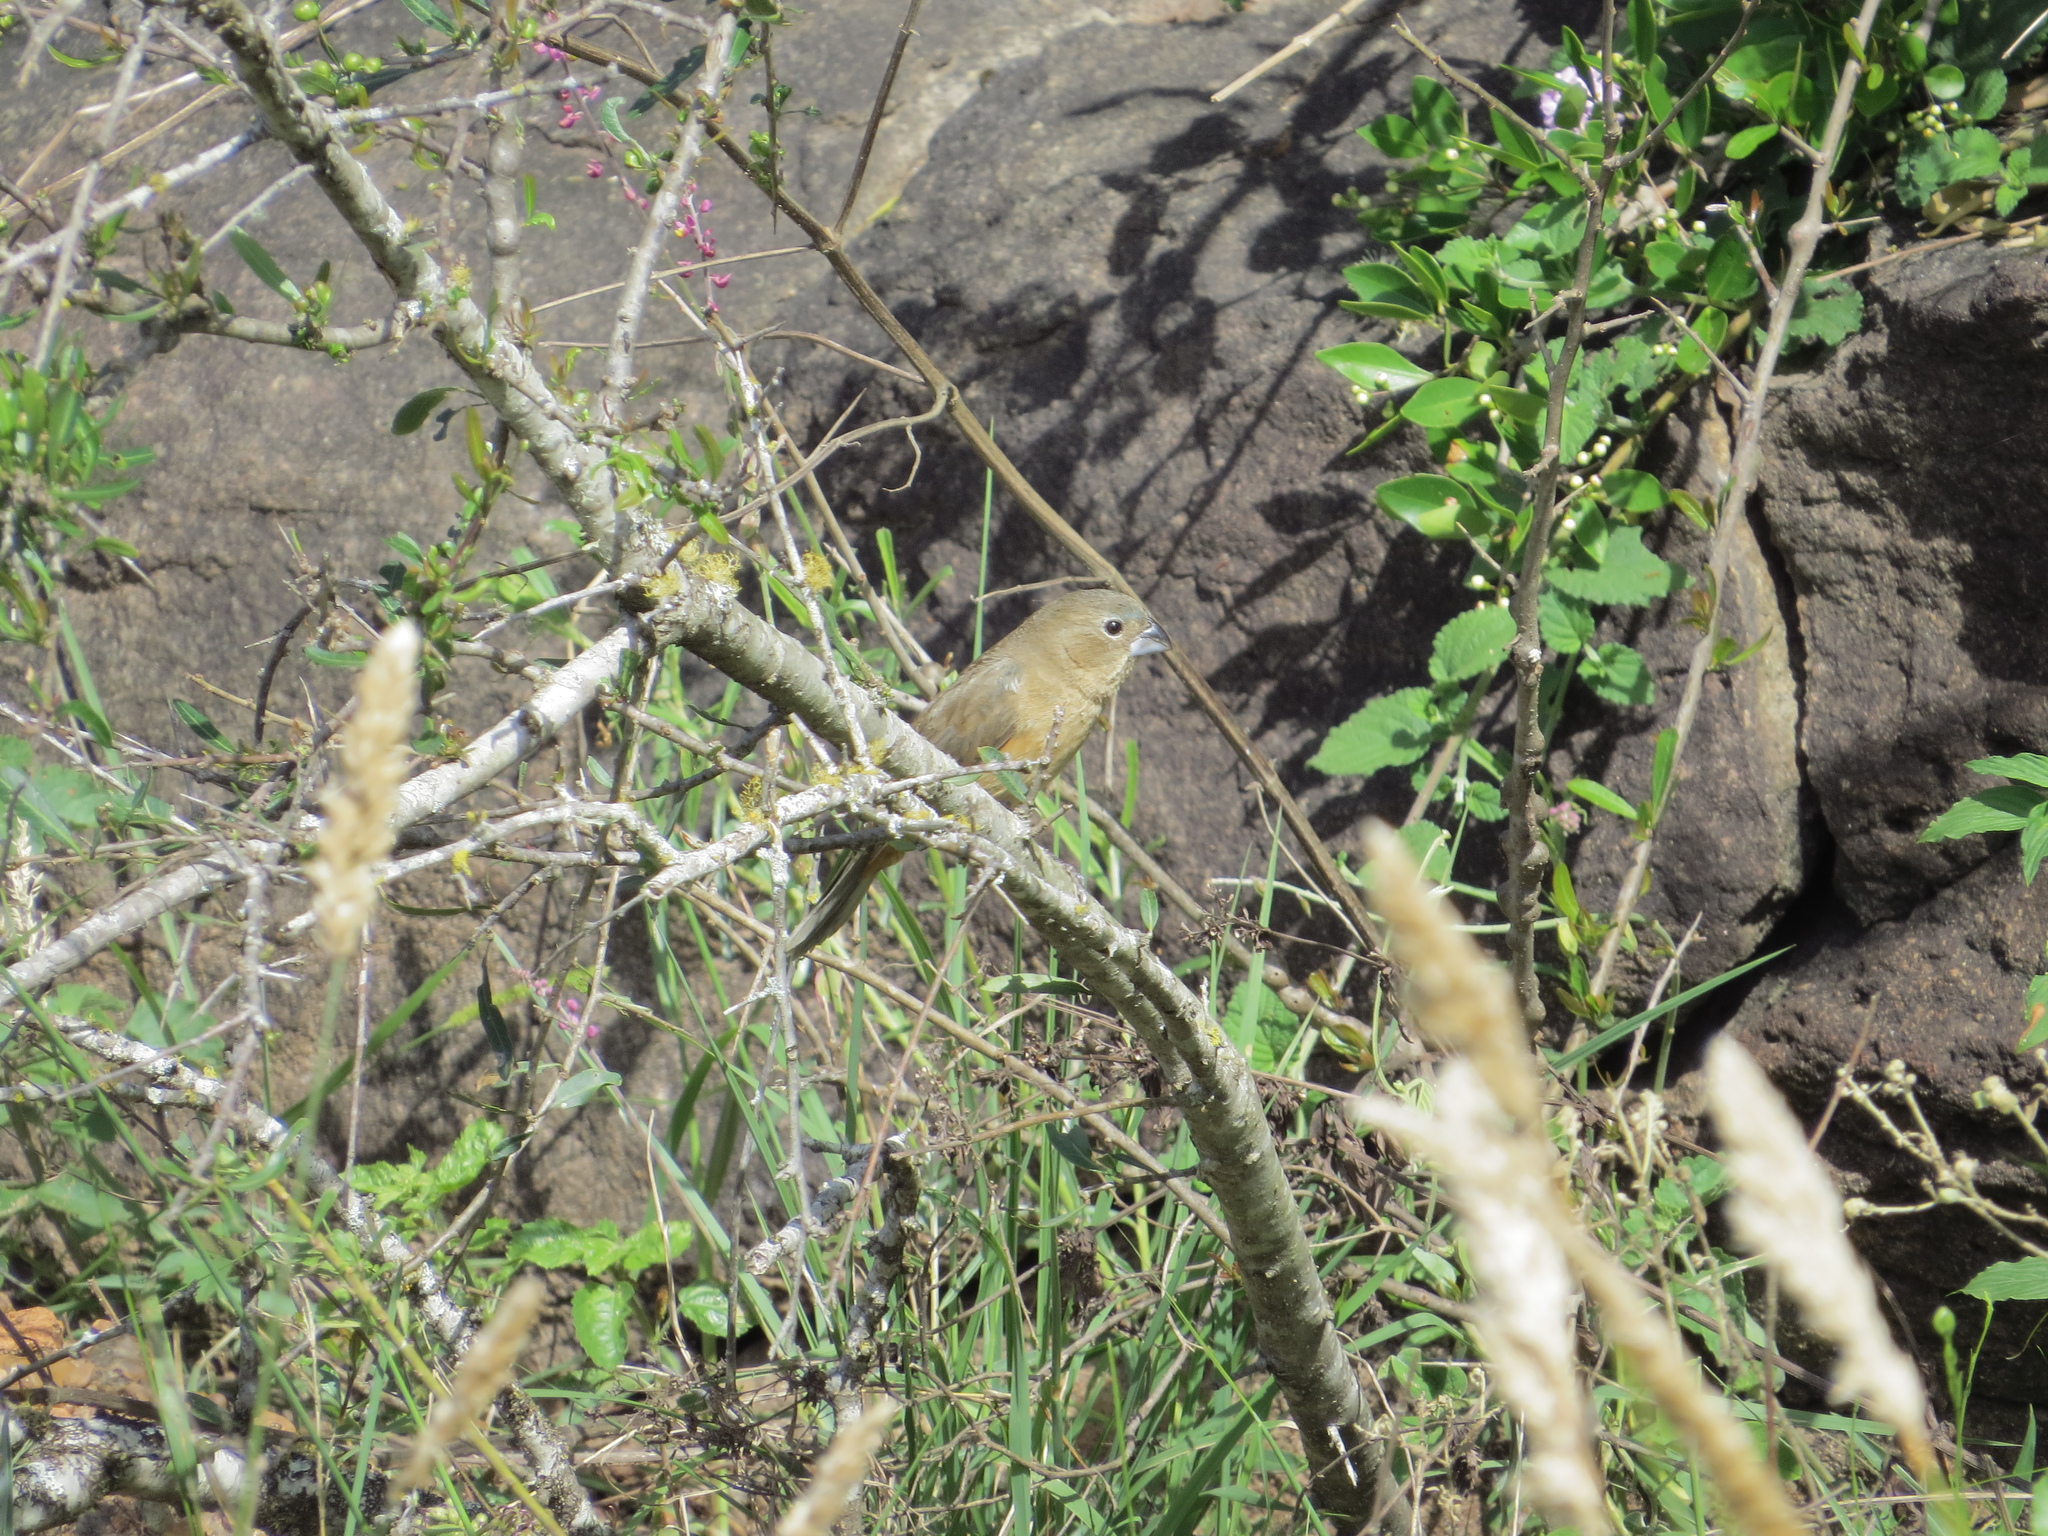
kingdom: Animalia
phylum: Chordata
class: Aves
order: Passeriformes
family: Cardinalidae
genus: Cyanoloxia
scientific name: Cyanoloxia glaucocaerulea
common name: Glaucous-blue grosbeak
